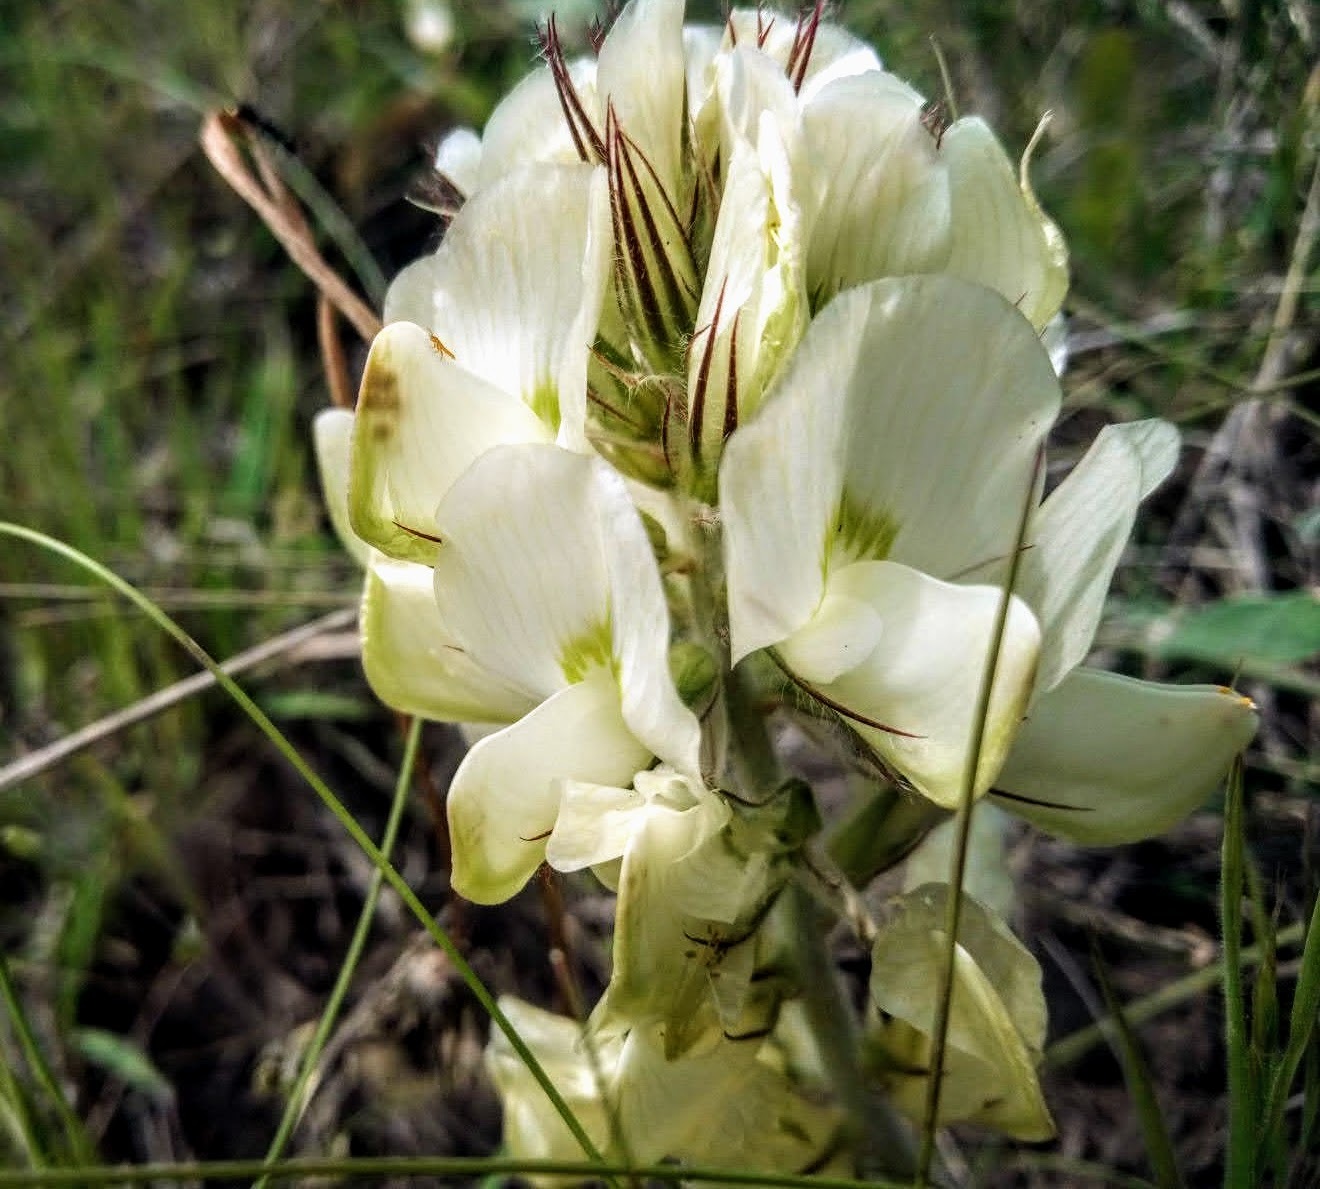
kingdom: Plantae
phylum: Tracheophyta
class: Magnoliopsida
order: Fabales
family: Fabaceae
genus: Hedysarum
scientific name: Hedysarum grandiflorum
